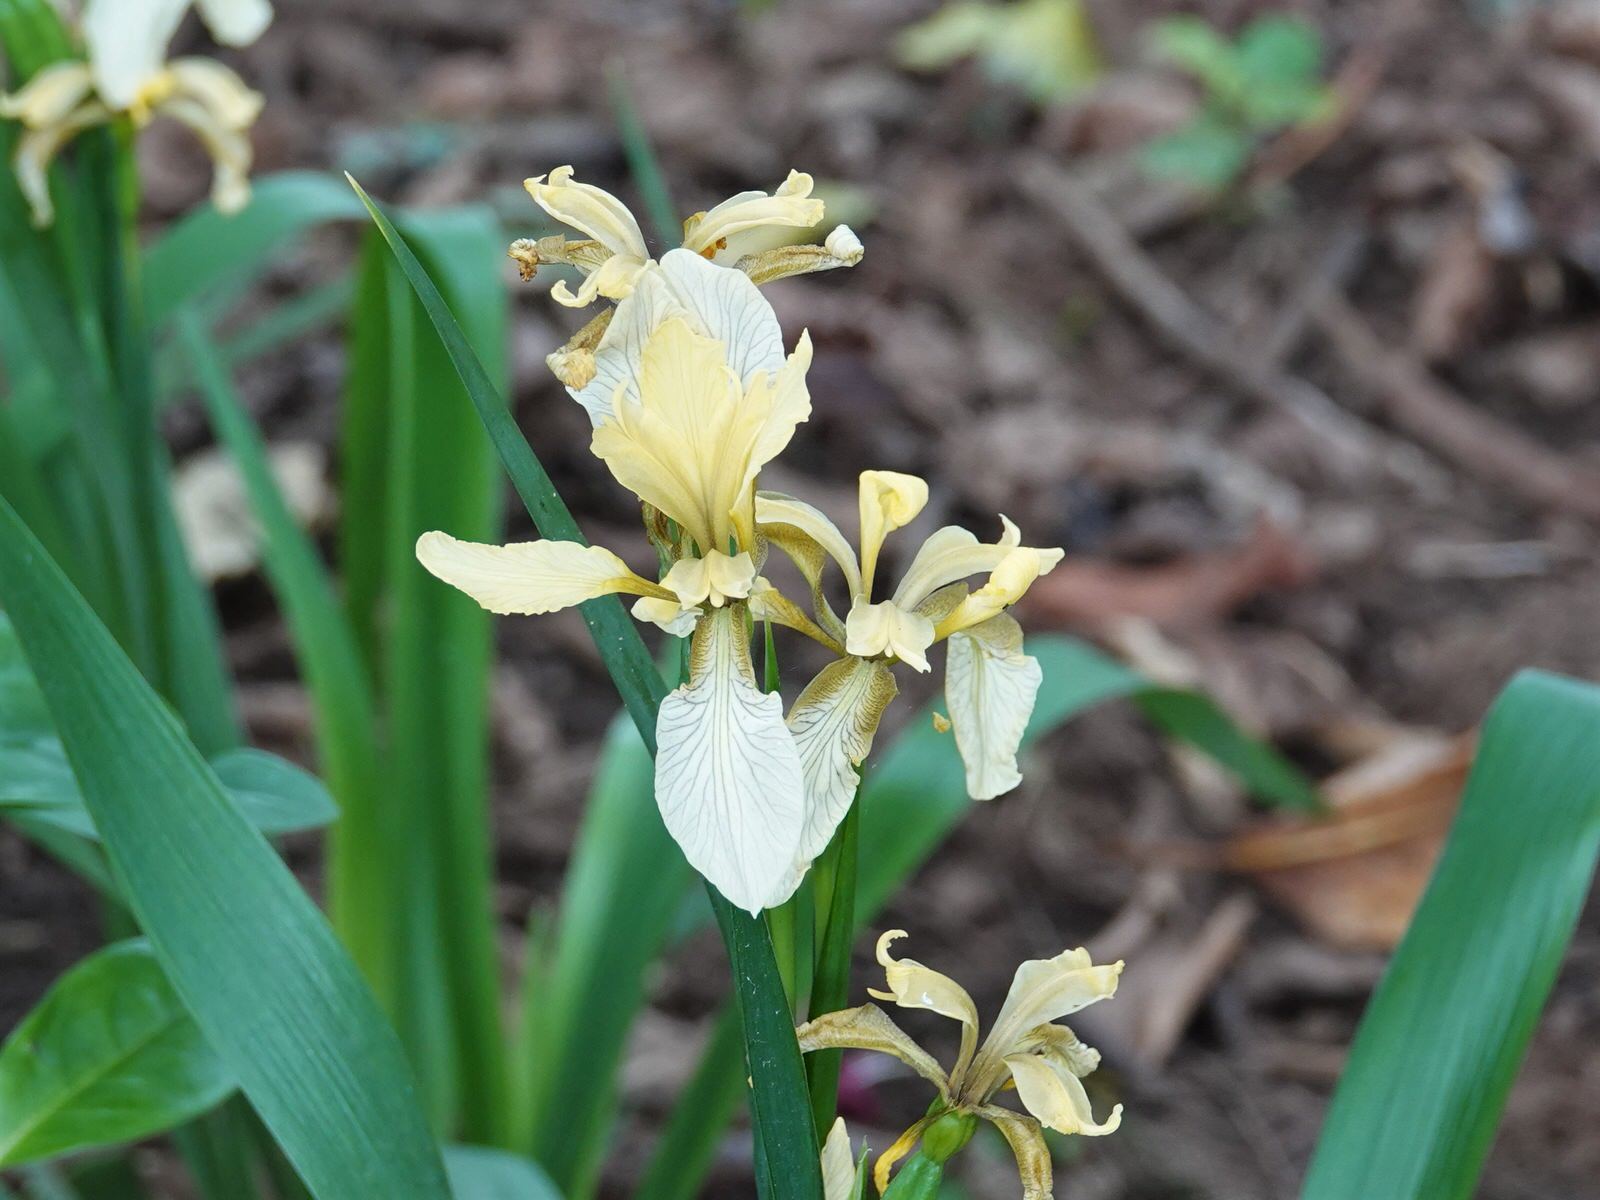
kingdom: Plantae
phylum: Tracheophyta
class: Liliopsida
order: Asparagales
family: Iridaceae
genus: Iris
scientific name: Iris foetidissima
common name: Stinking iris
